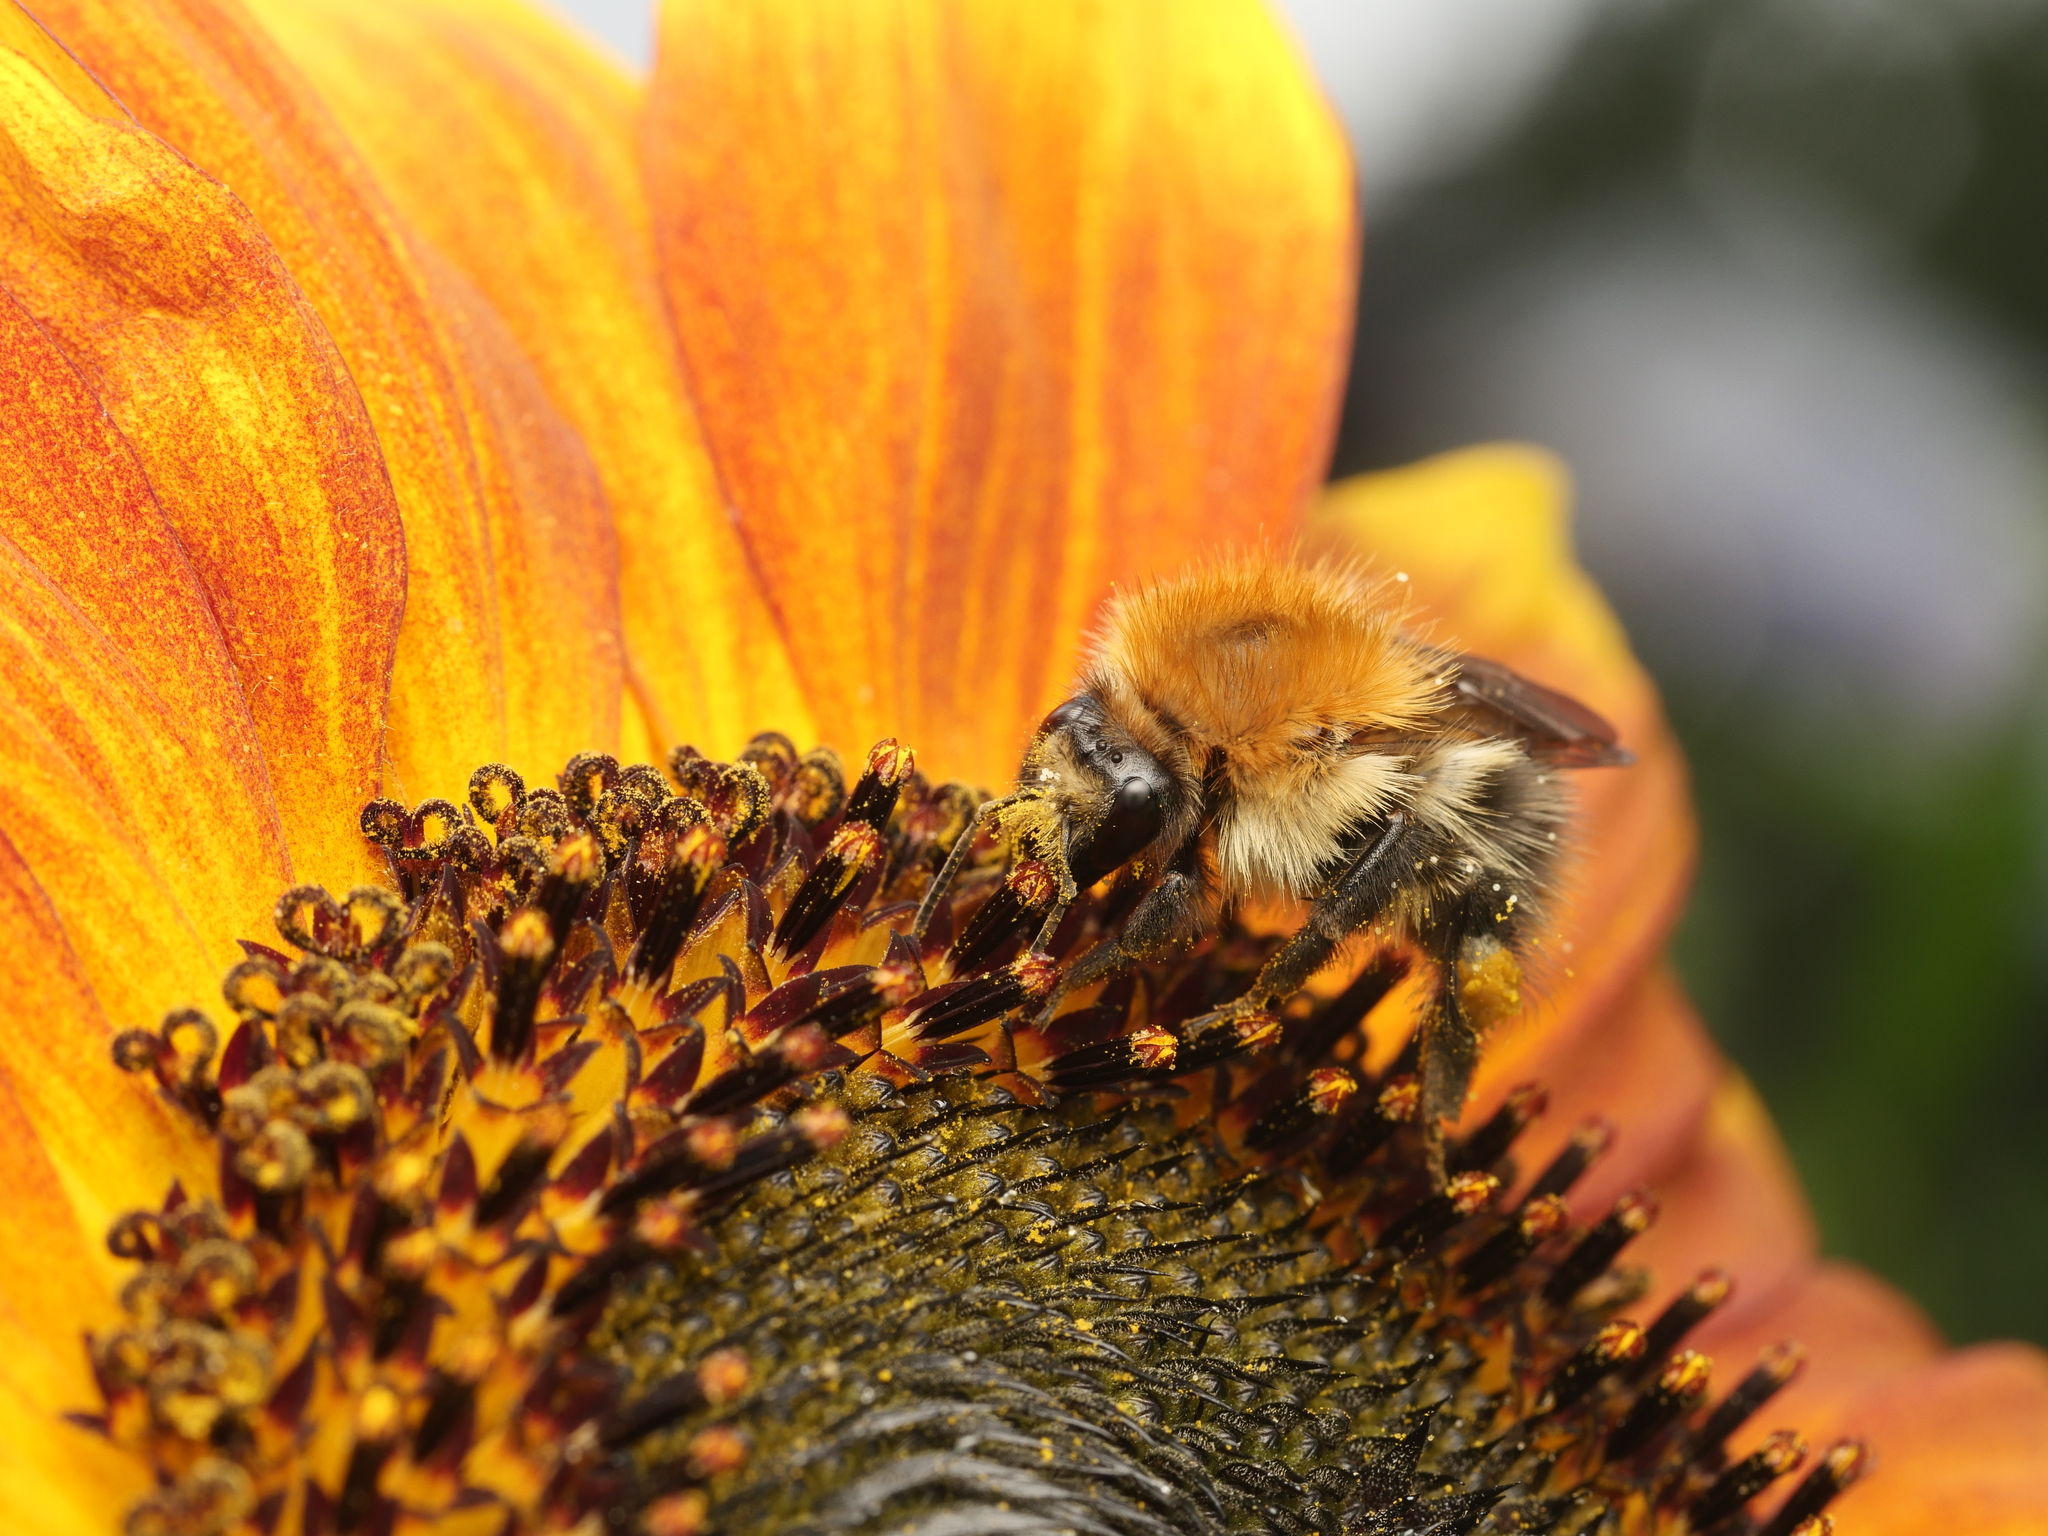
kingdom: Animalia
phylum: Arthropoda
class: Insecta
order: Hymenoptera
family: Apidae
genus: Bombus
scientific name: Bombus pascuorum
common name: Common carder bee
